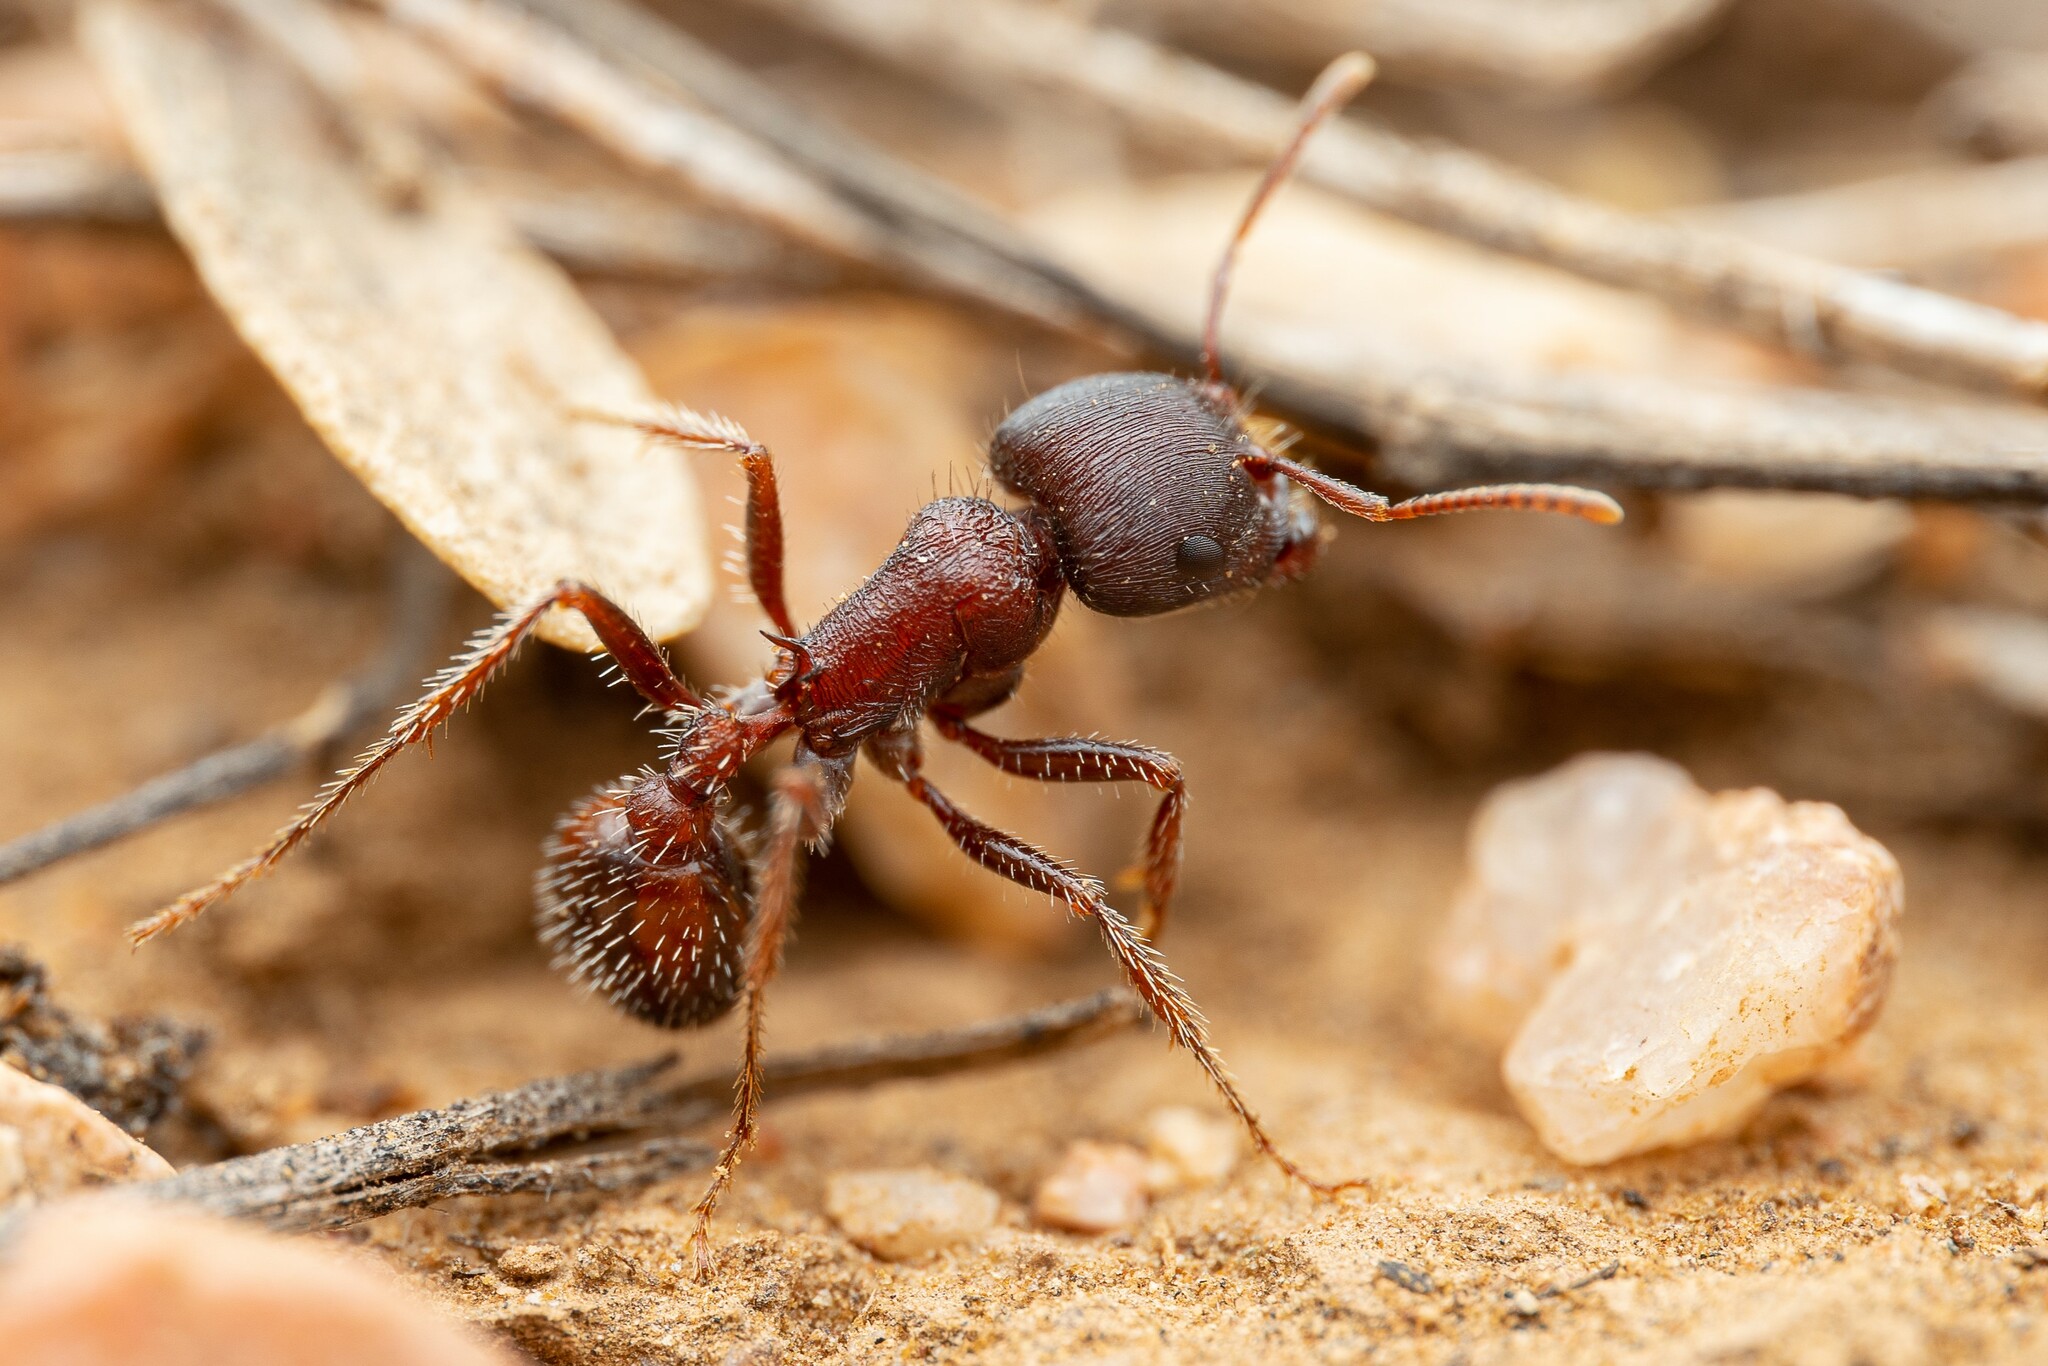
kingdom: Animalia
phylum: Arthropoda
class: Insecta
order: Hymenoptera
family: Formicidae
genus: Pogonomyrmex
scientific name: Pogonomyrmex rugosus
